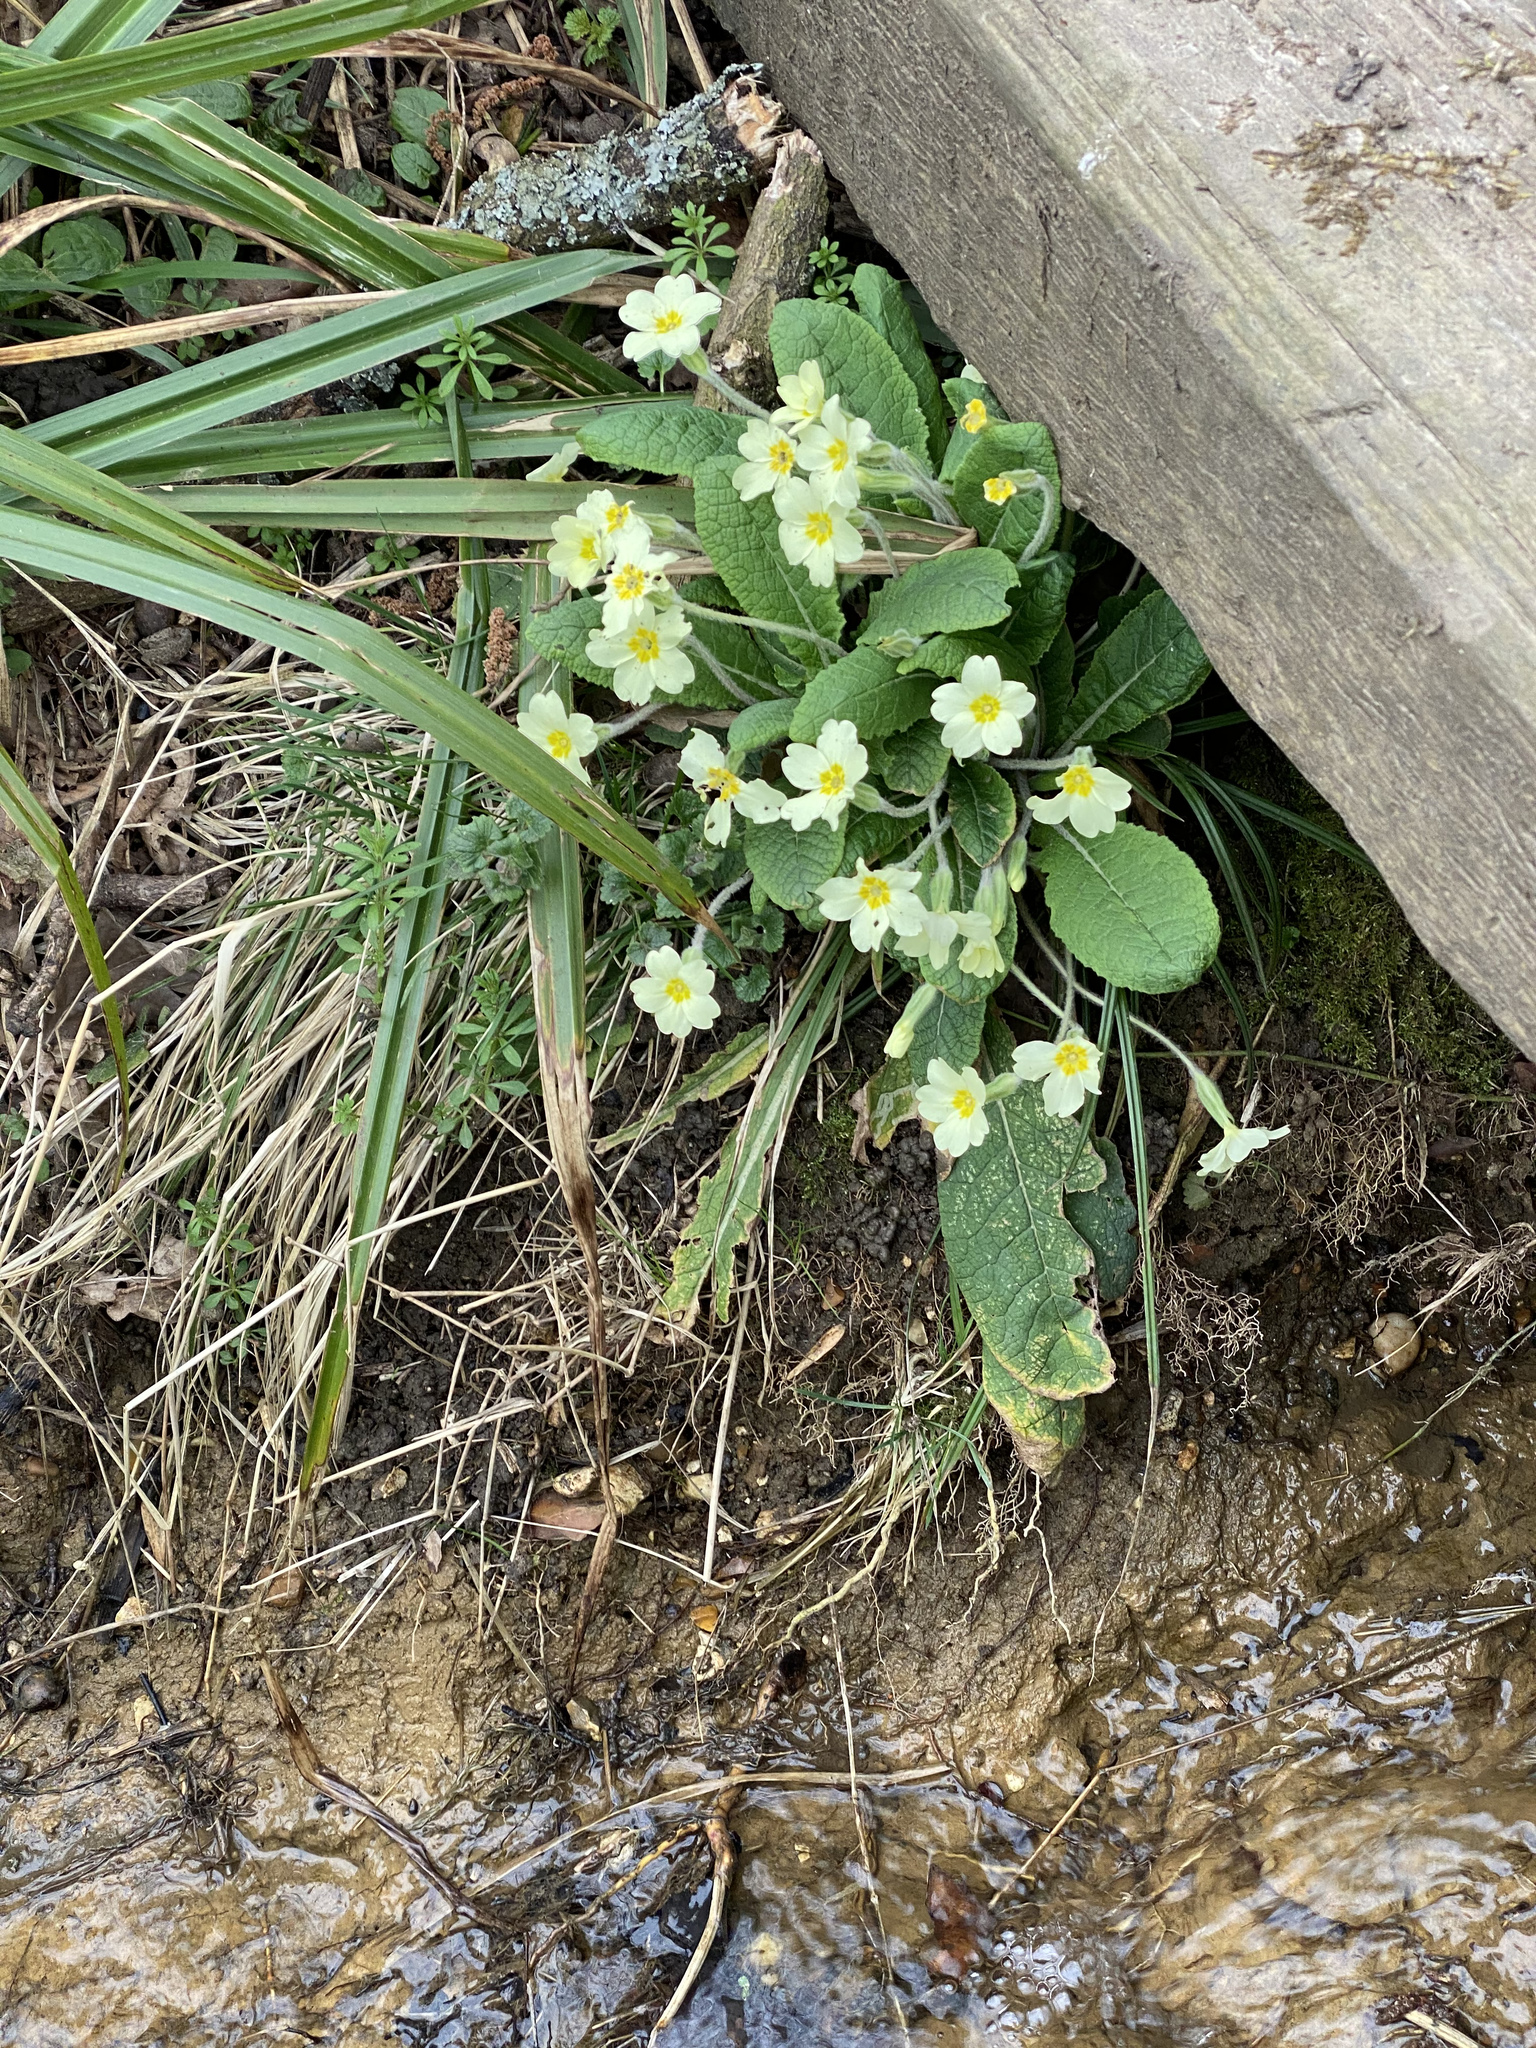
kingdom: Plantae
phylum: Tracheophyta
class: Magnoliopsida
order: Ericales
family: Primulaceae
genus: Primula
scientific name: Primula vulgaris
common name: Primrose
